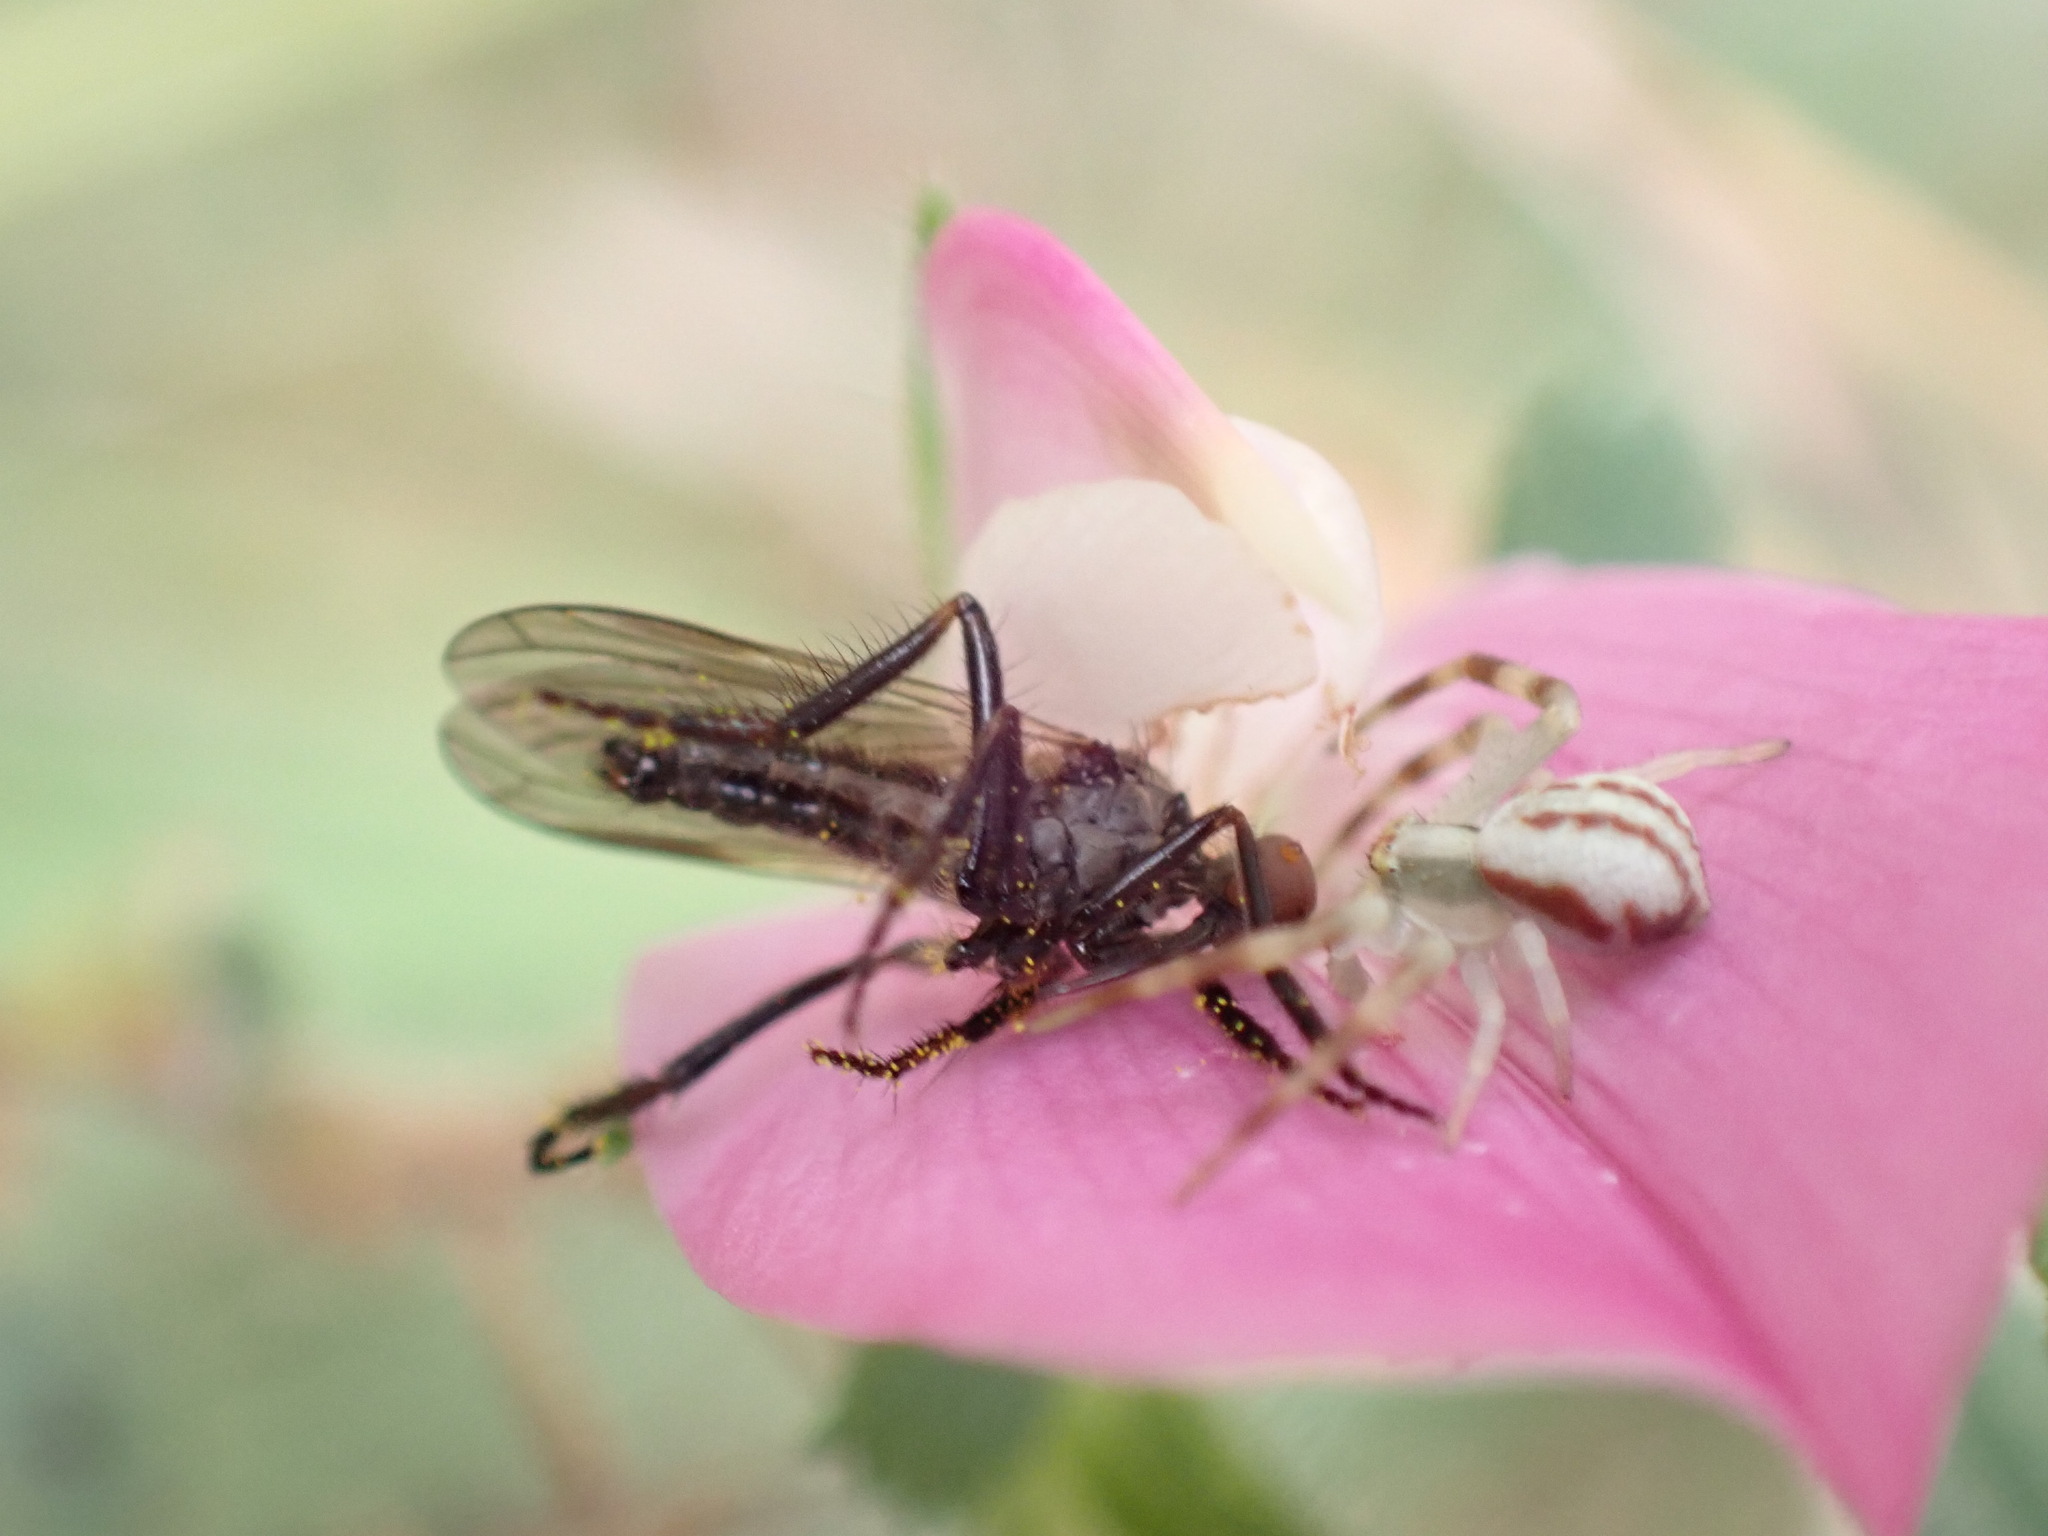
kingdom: Animalia
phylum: Arthropoda
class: Arachnida
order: Araneae
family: Thomisidae
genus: Misumena
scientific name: Misumena vatia
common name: Goldenrod crab spider
